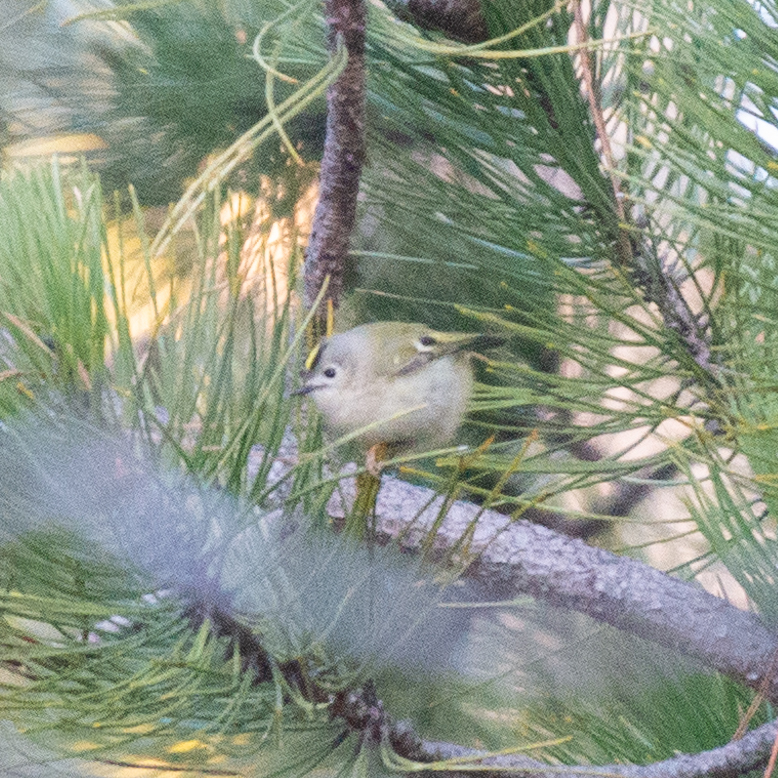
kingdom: Animalia
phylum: Chordata
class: Aves
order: Passeriformes
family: Regulidae
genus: Regulus
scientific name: Regulus regulus
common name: Goldcrest
